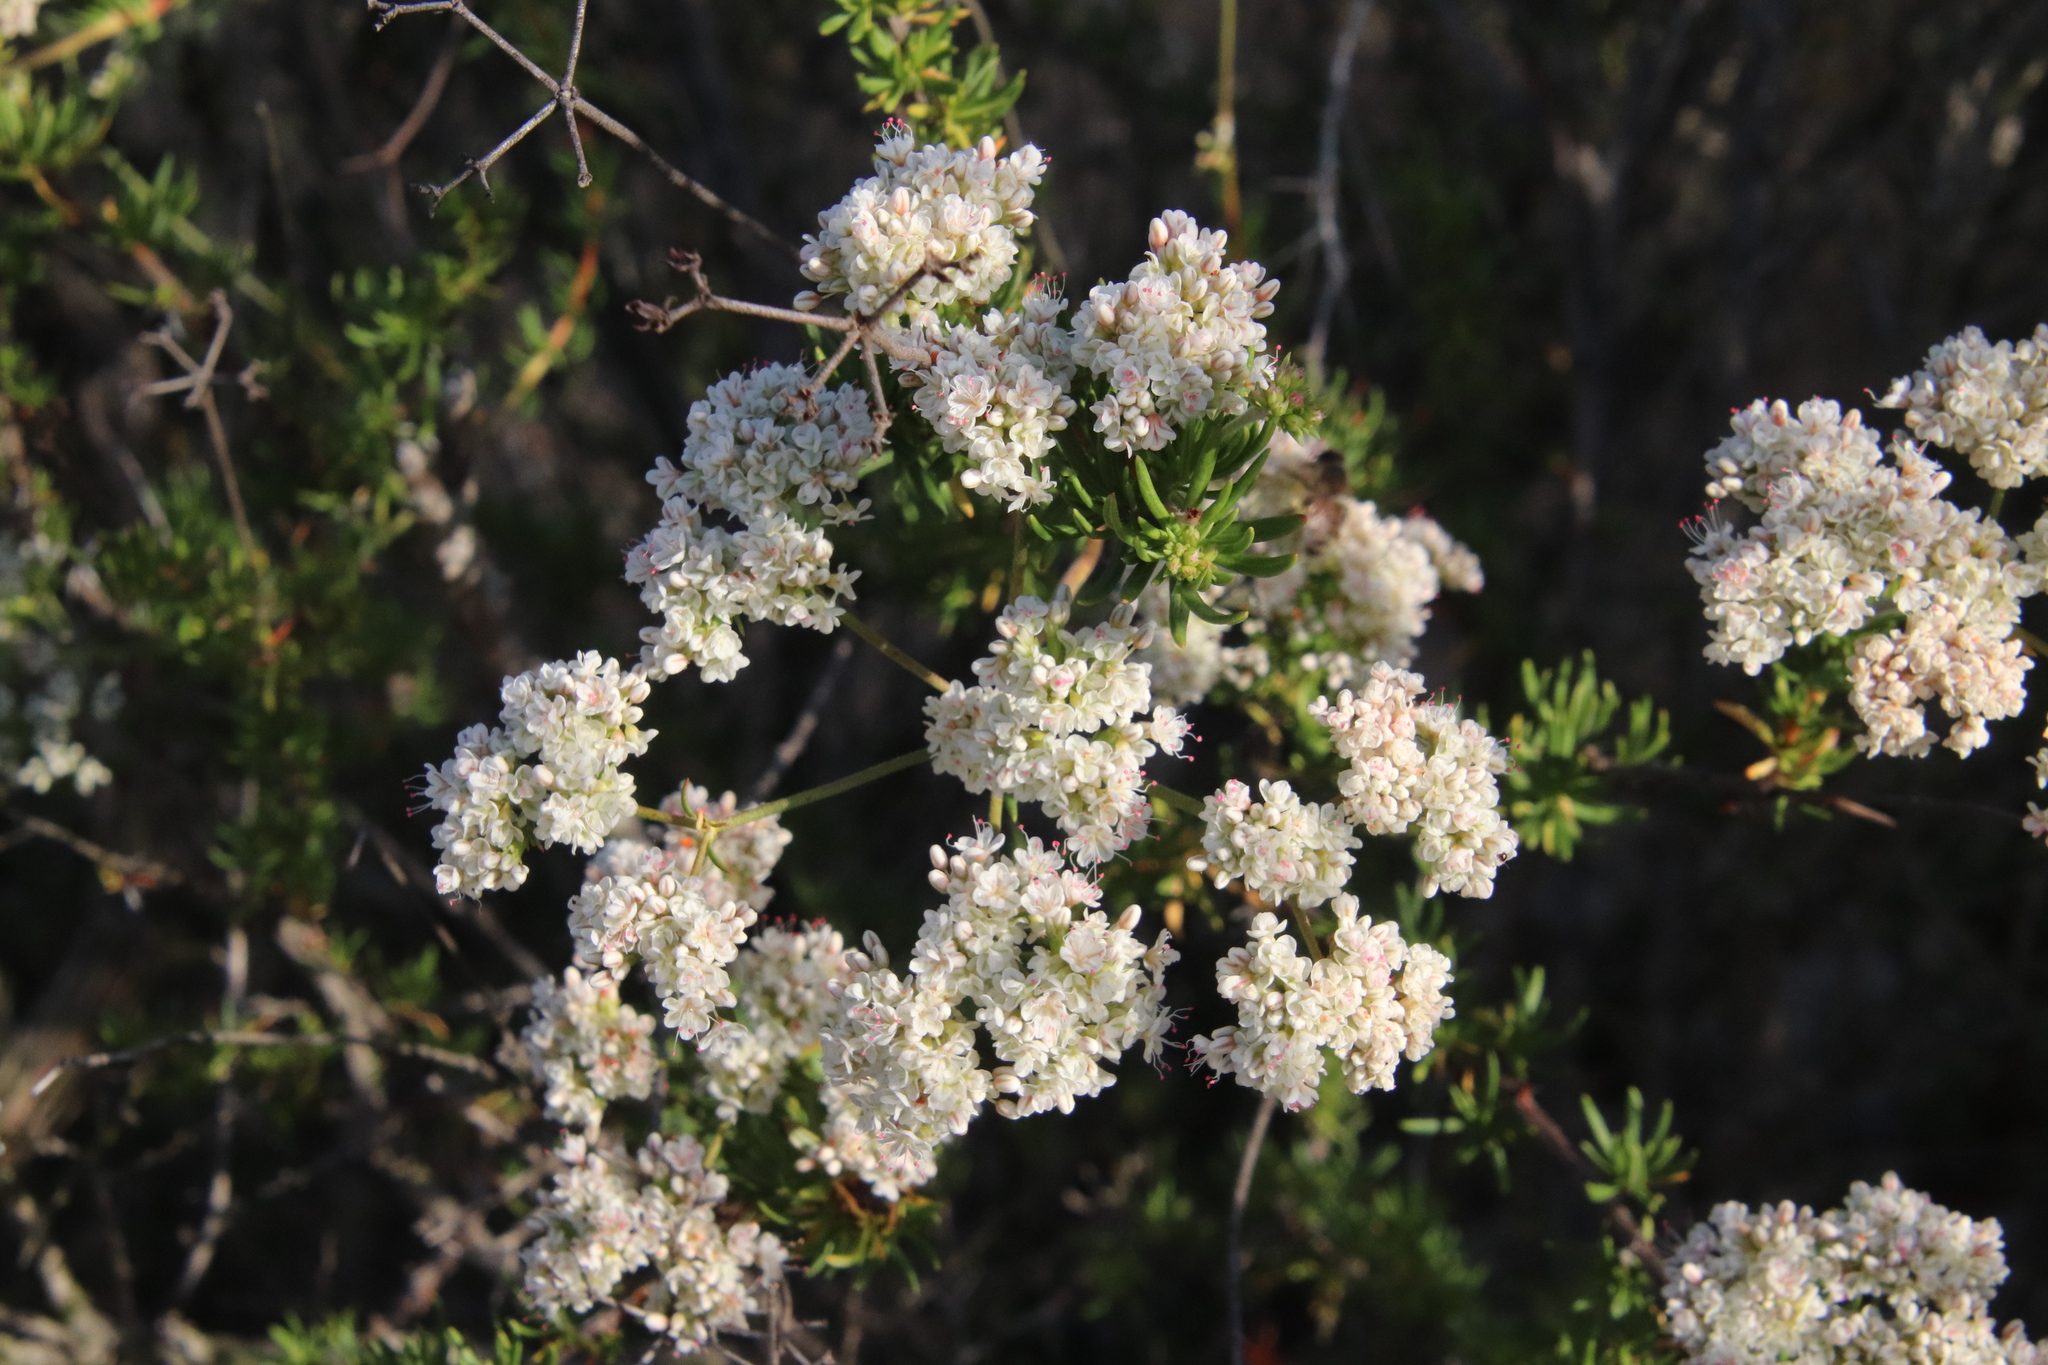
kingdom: Plantae
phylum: Tracheophyta
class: Magnoliopsida
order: Caryophyllales
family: Polygonaceae
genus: Eriogonum
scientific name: Eriogonum fasciculatum
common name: California wild buckwheat
